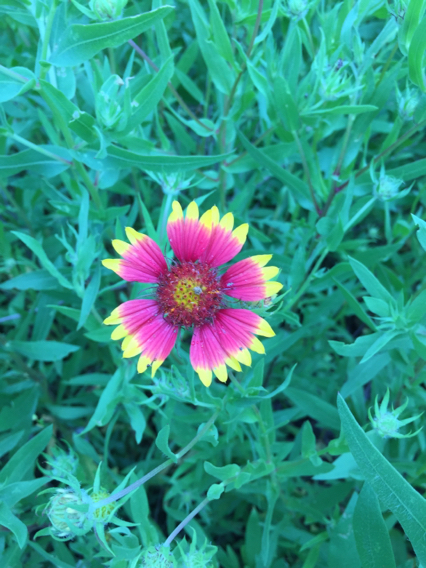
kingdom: Plantae
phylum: Tracheophyta
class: Magnoliopsida
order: Asterales
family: Asteraceae
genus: Gaillardia
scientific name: Gaillardia pulchella
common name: Firewheel
